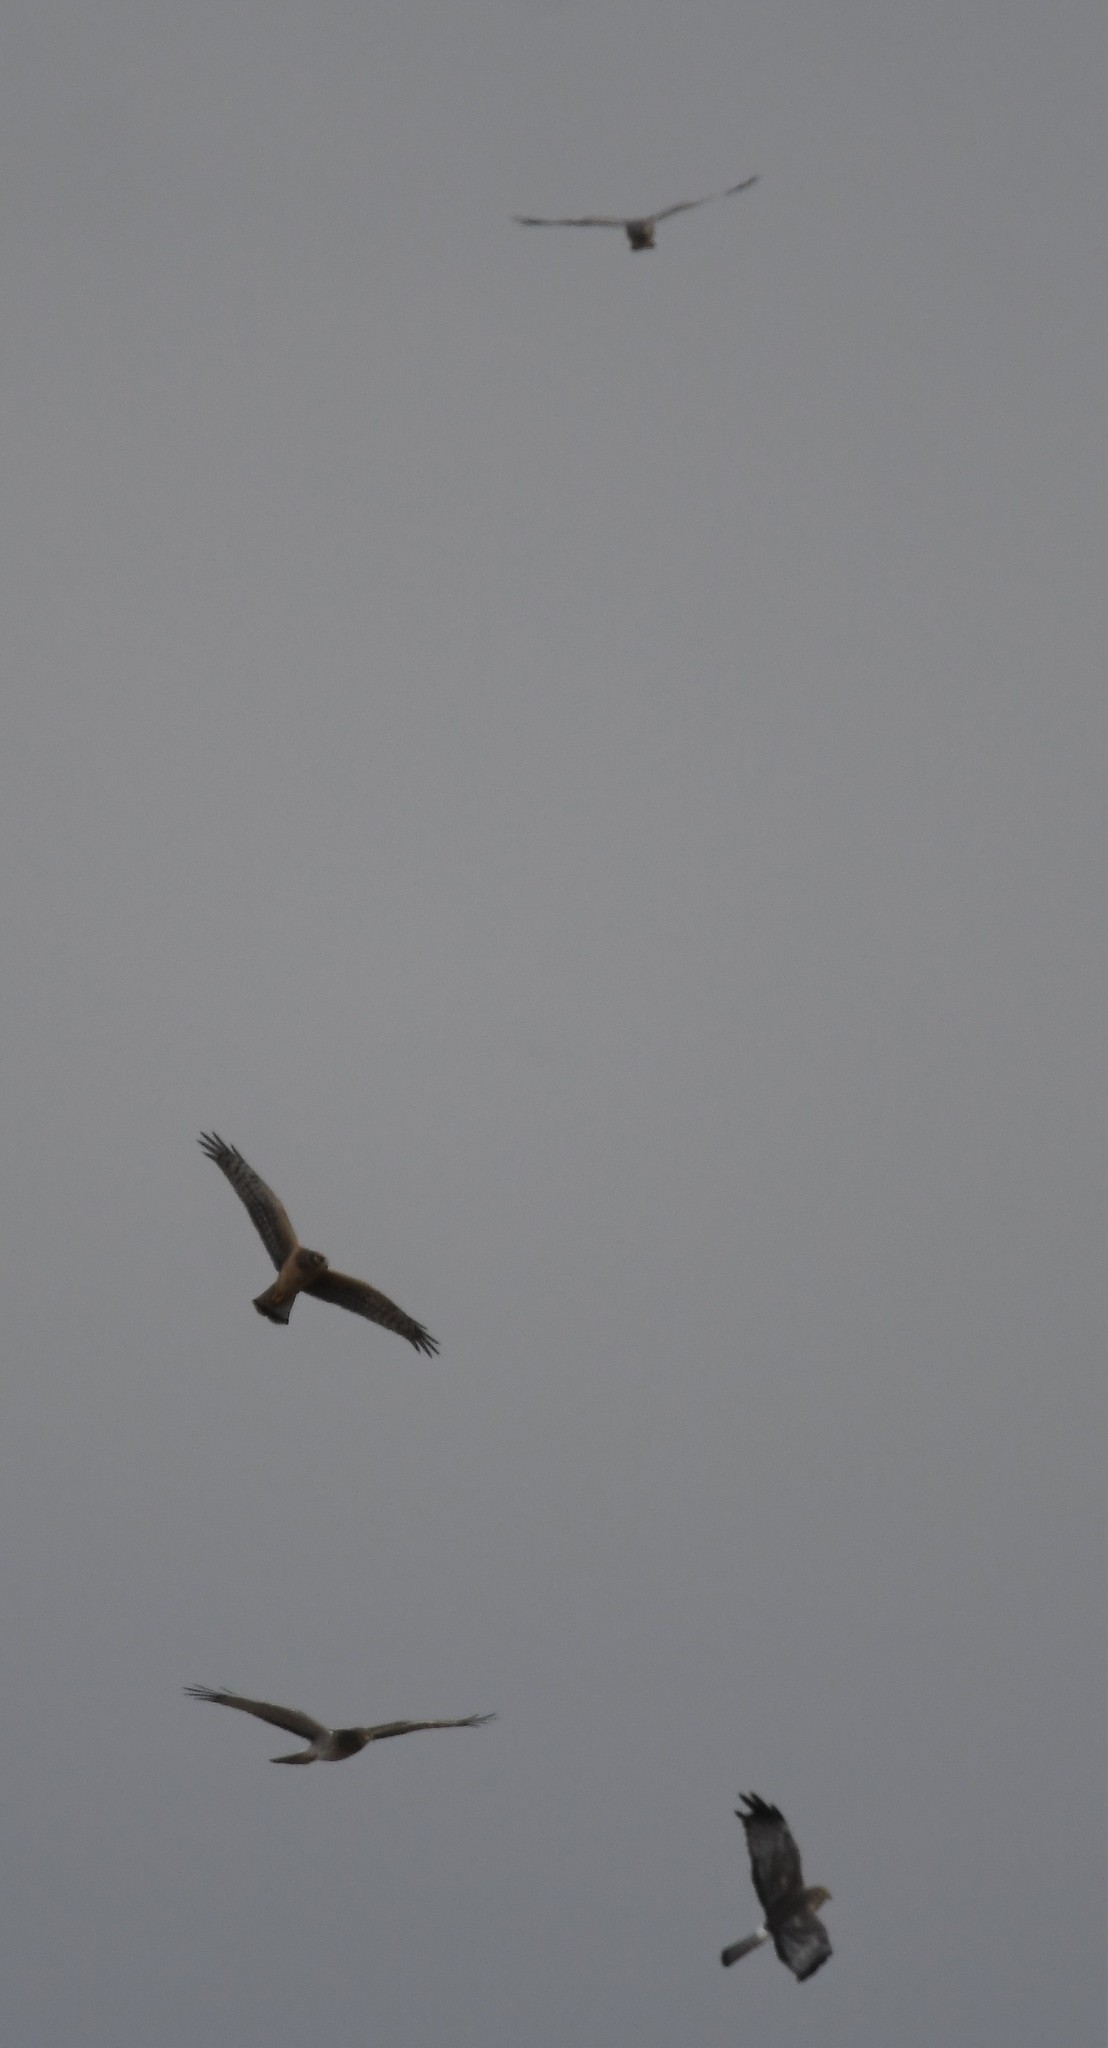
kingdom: Animalia
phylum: Chordata
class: Aves
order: Accipitriformes
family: Accipitridae
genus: Circus
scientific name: Circus cyaneus
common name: Hen harrier
